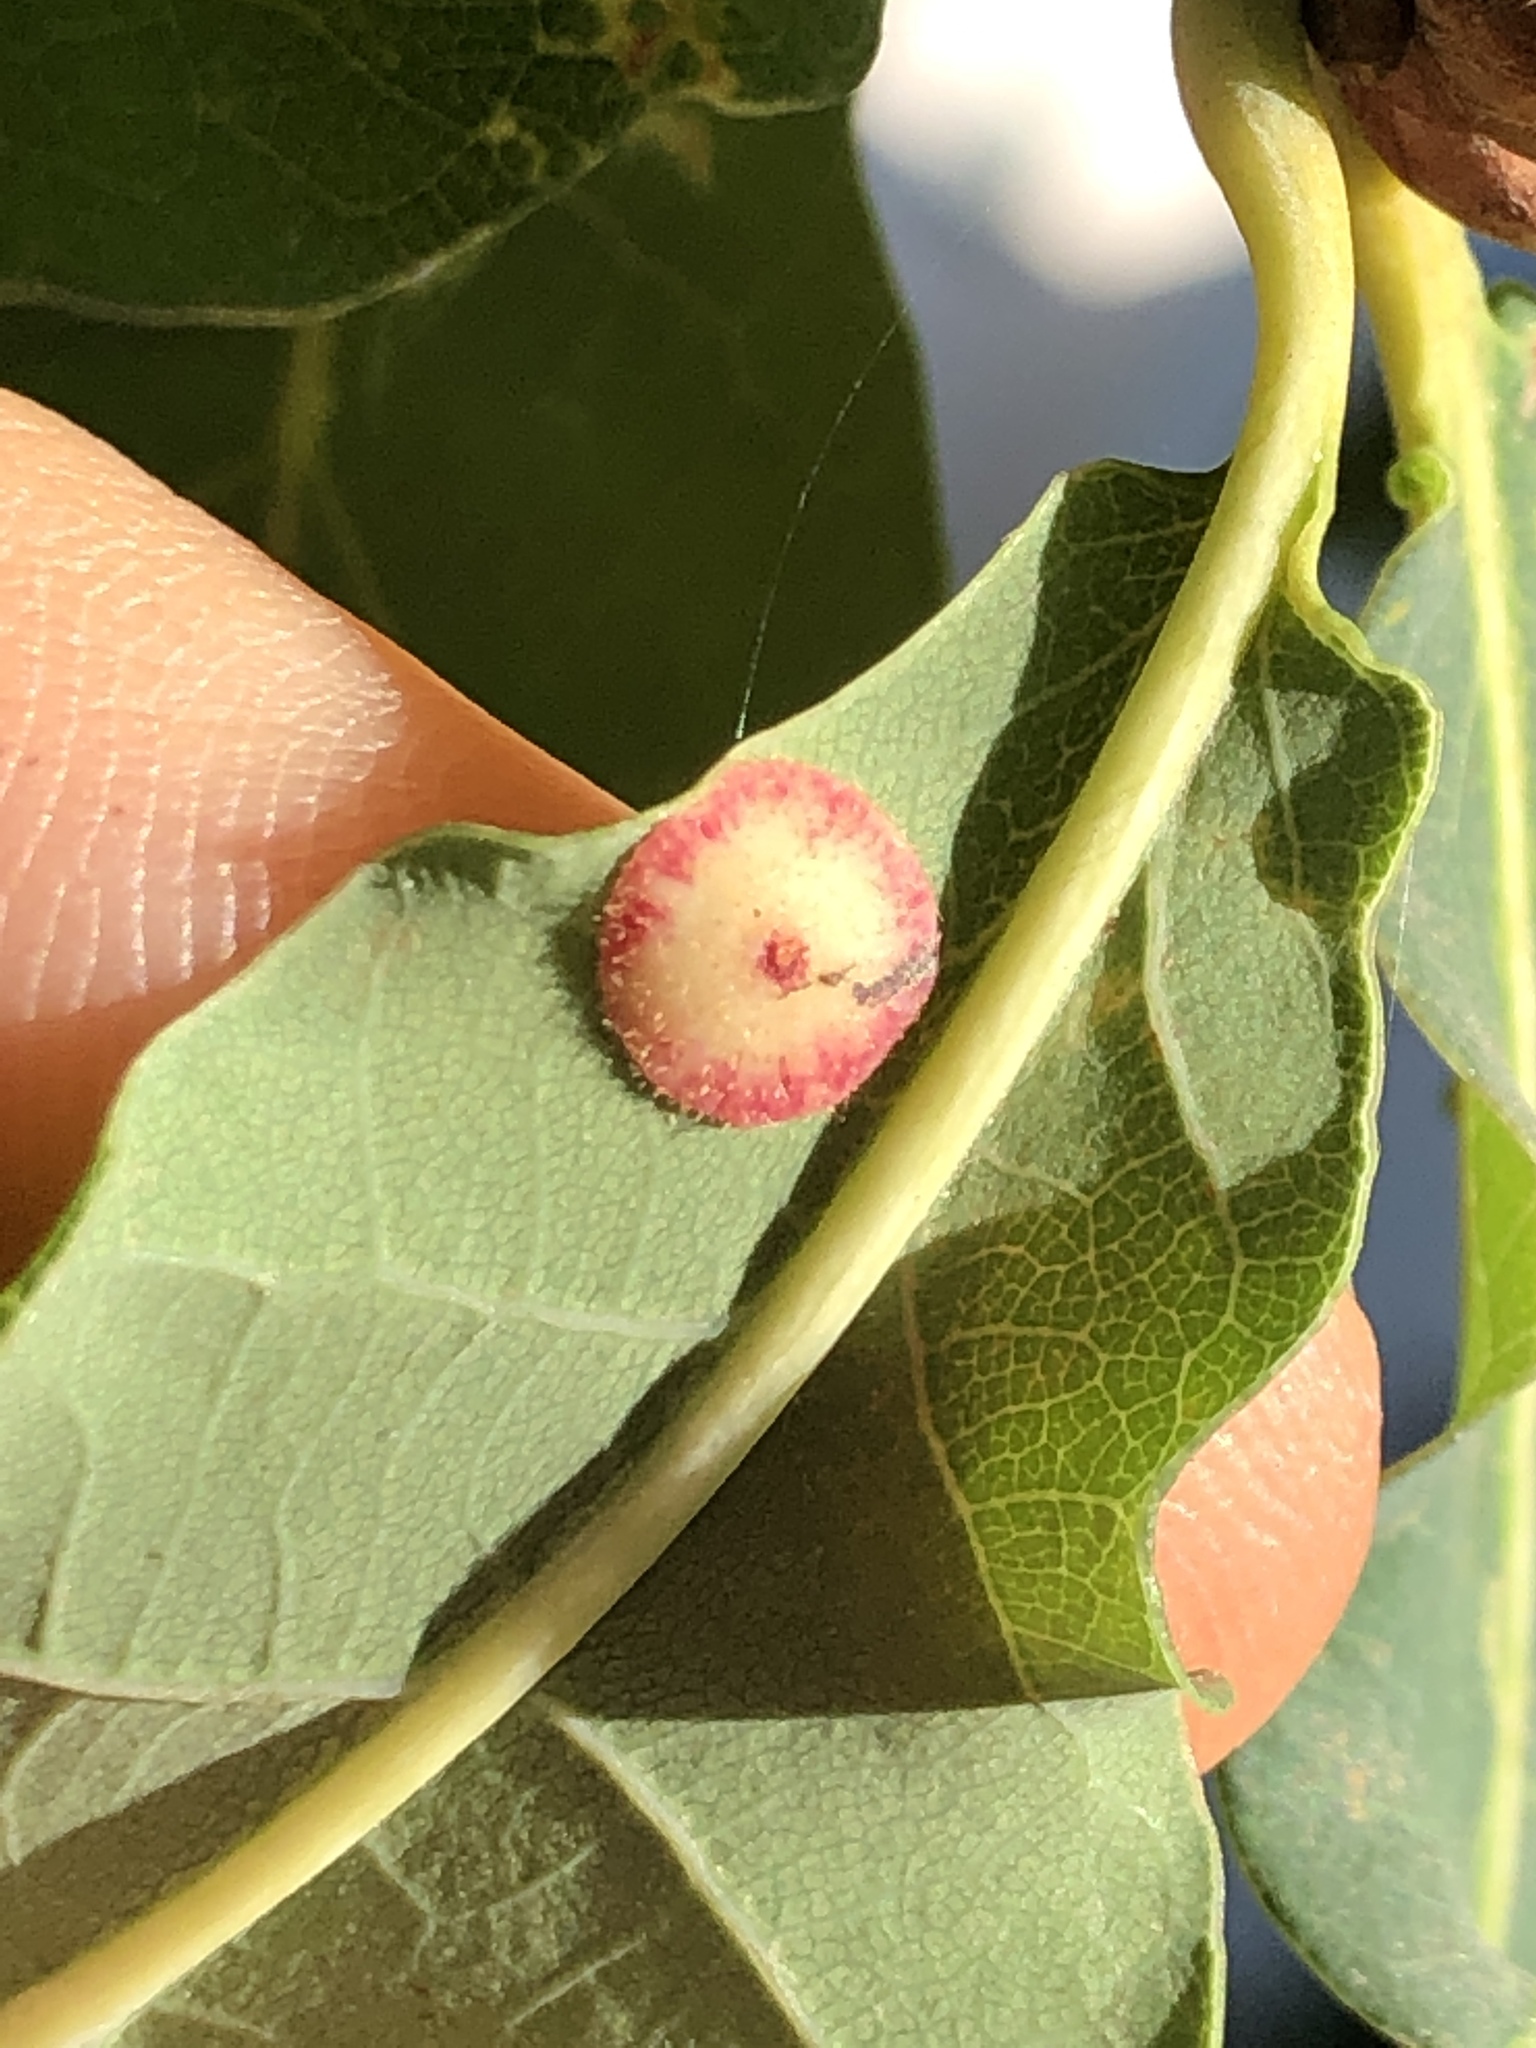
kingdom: Animalia
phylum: Arthropoda
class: Insecta
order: Hymenoptera
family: Cynipidae
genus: Neuroterus
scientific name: Neuroterus quercusbaccarum
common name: Common spangle gall
